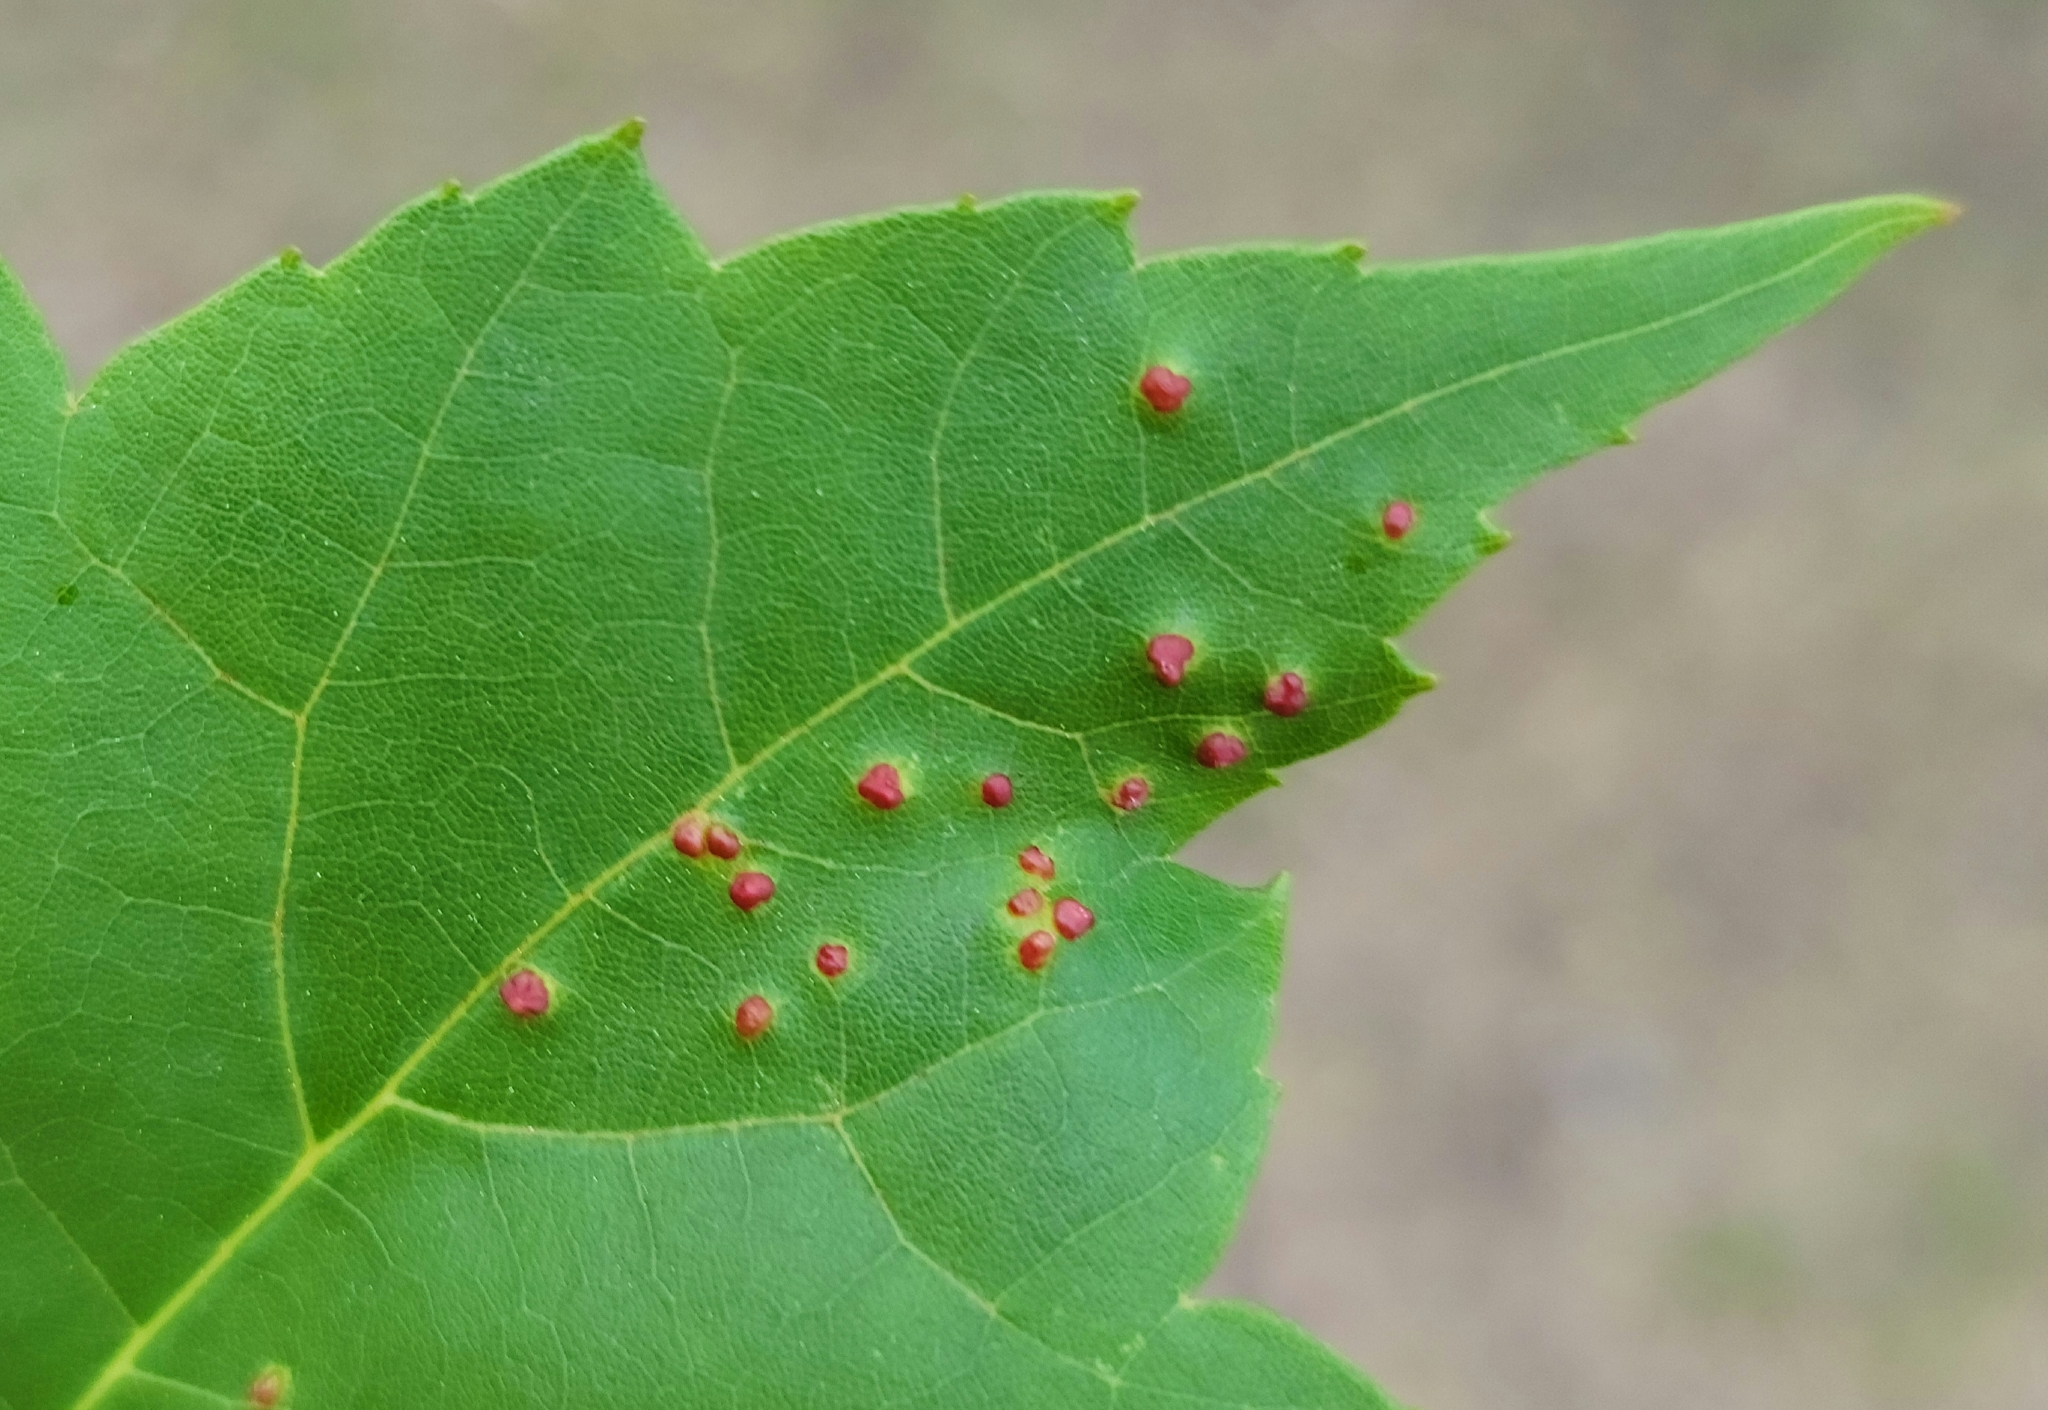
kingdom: Animalia
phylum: Arthropoda
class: Arachnida
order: Trombidiformes
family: Eriophyidae
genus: Vasates
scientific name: Vasates quadripedes
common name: Maple bladder gall mite
